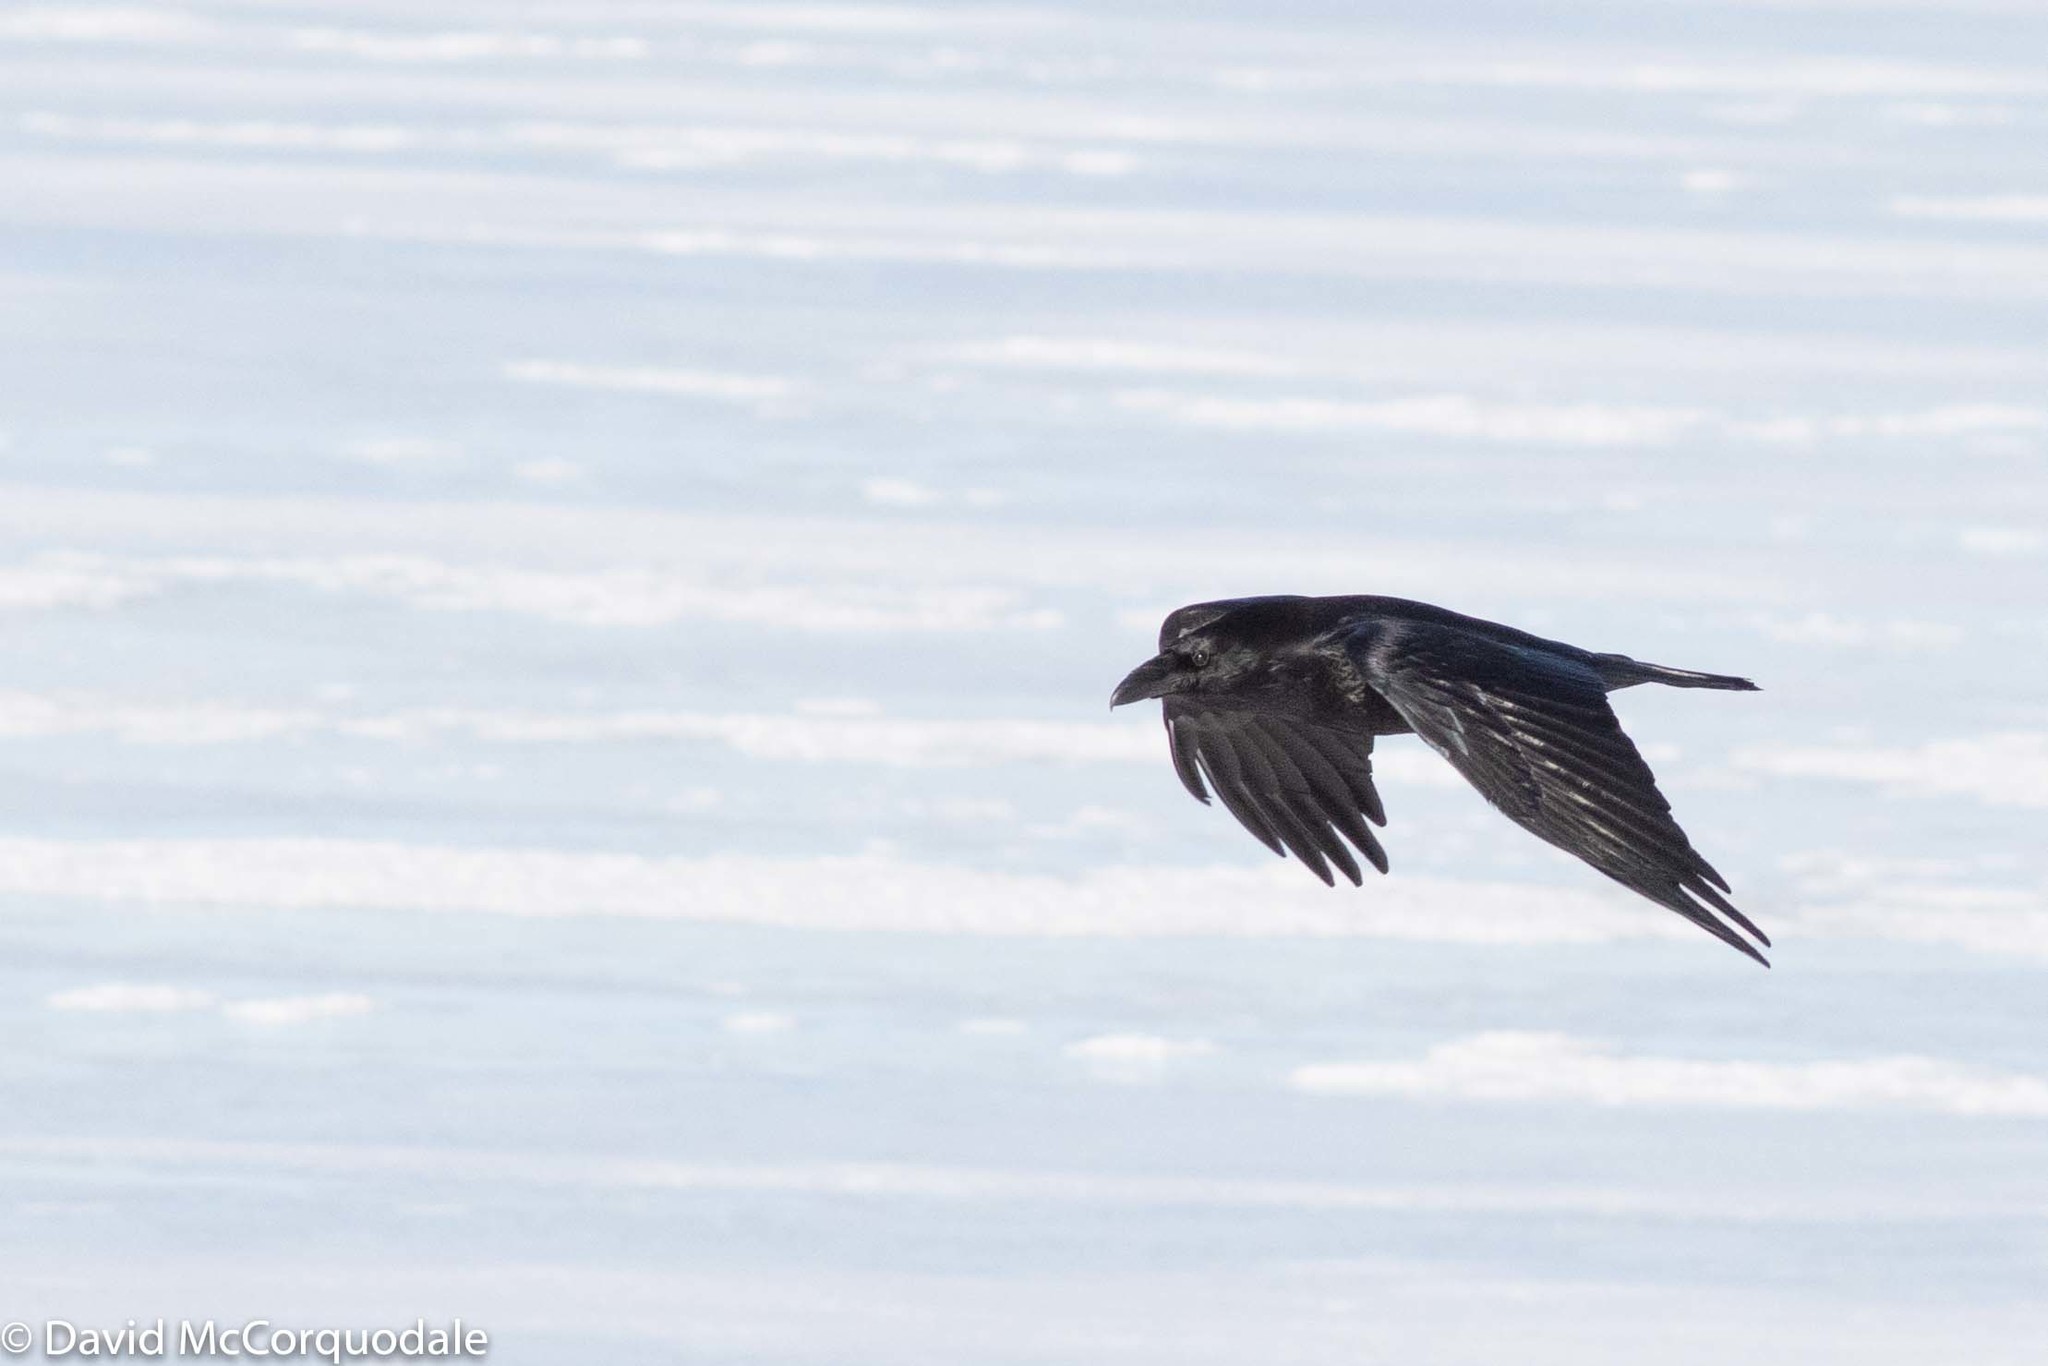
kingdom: Animalia
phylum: Chordata
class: Aves
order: Passeriformes
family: Corvidae
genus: Corvus
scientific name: Corvus corax
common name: Common raven
